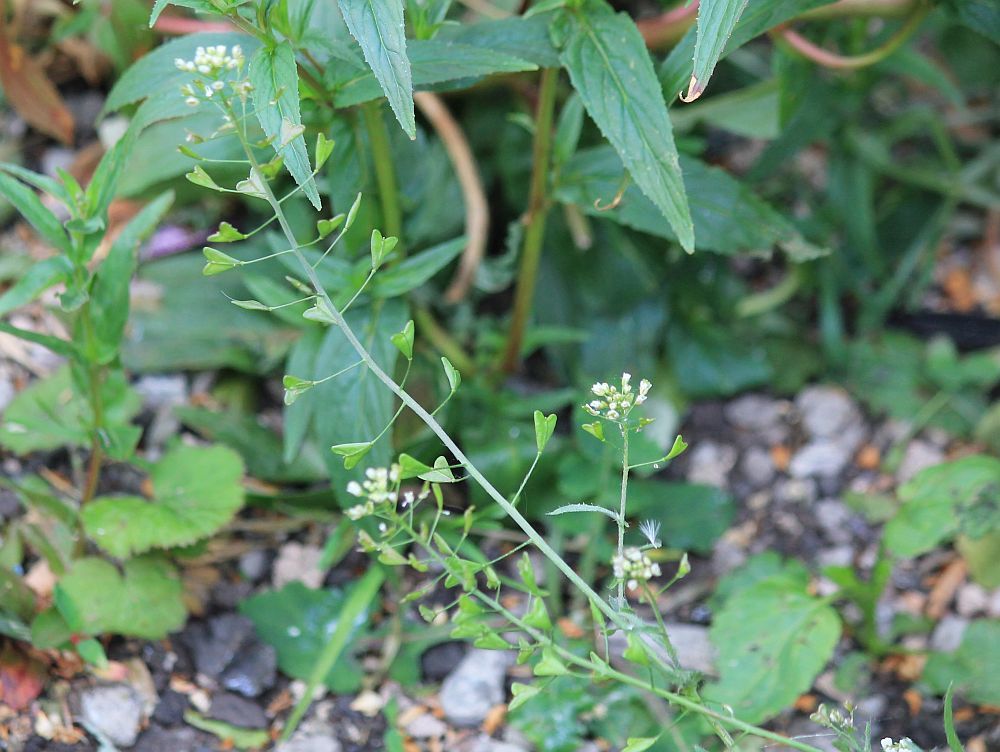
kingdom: Plantae
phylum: Tracheophyta
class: Magnoliopsida
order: Brassicales
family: Brassicaceae
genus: Capsella
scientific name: Capsella bursa-pastoris
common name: Shepherd's purse
